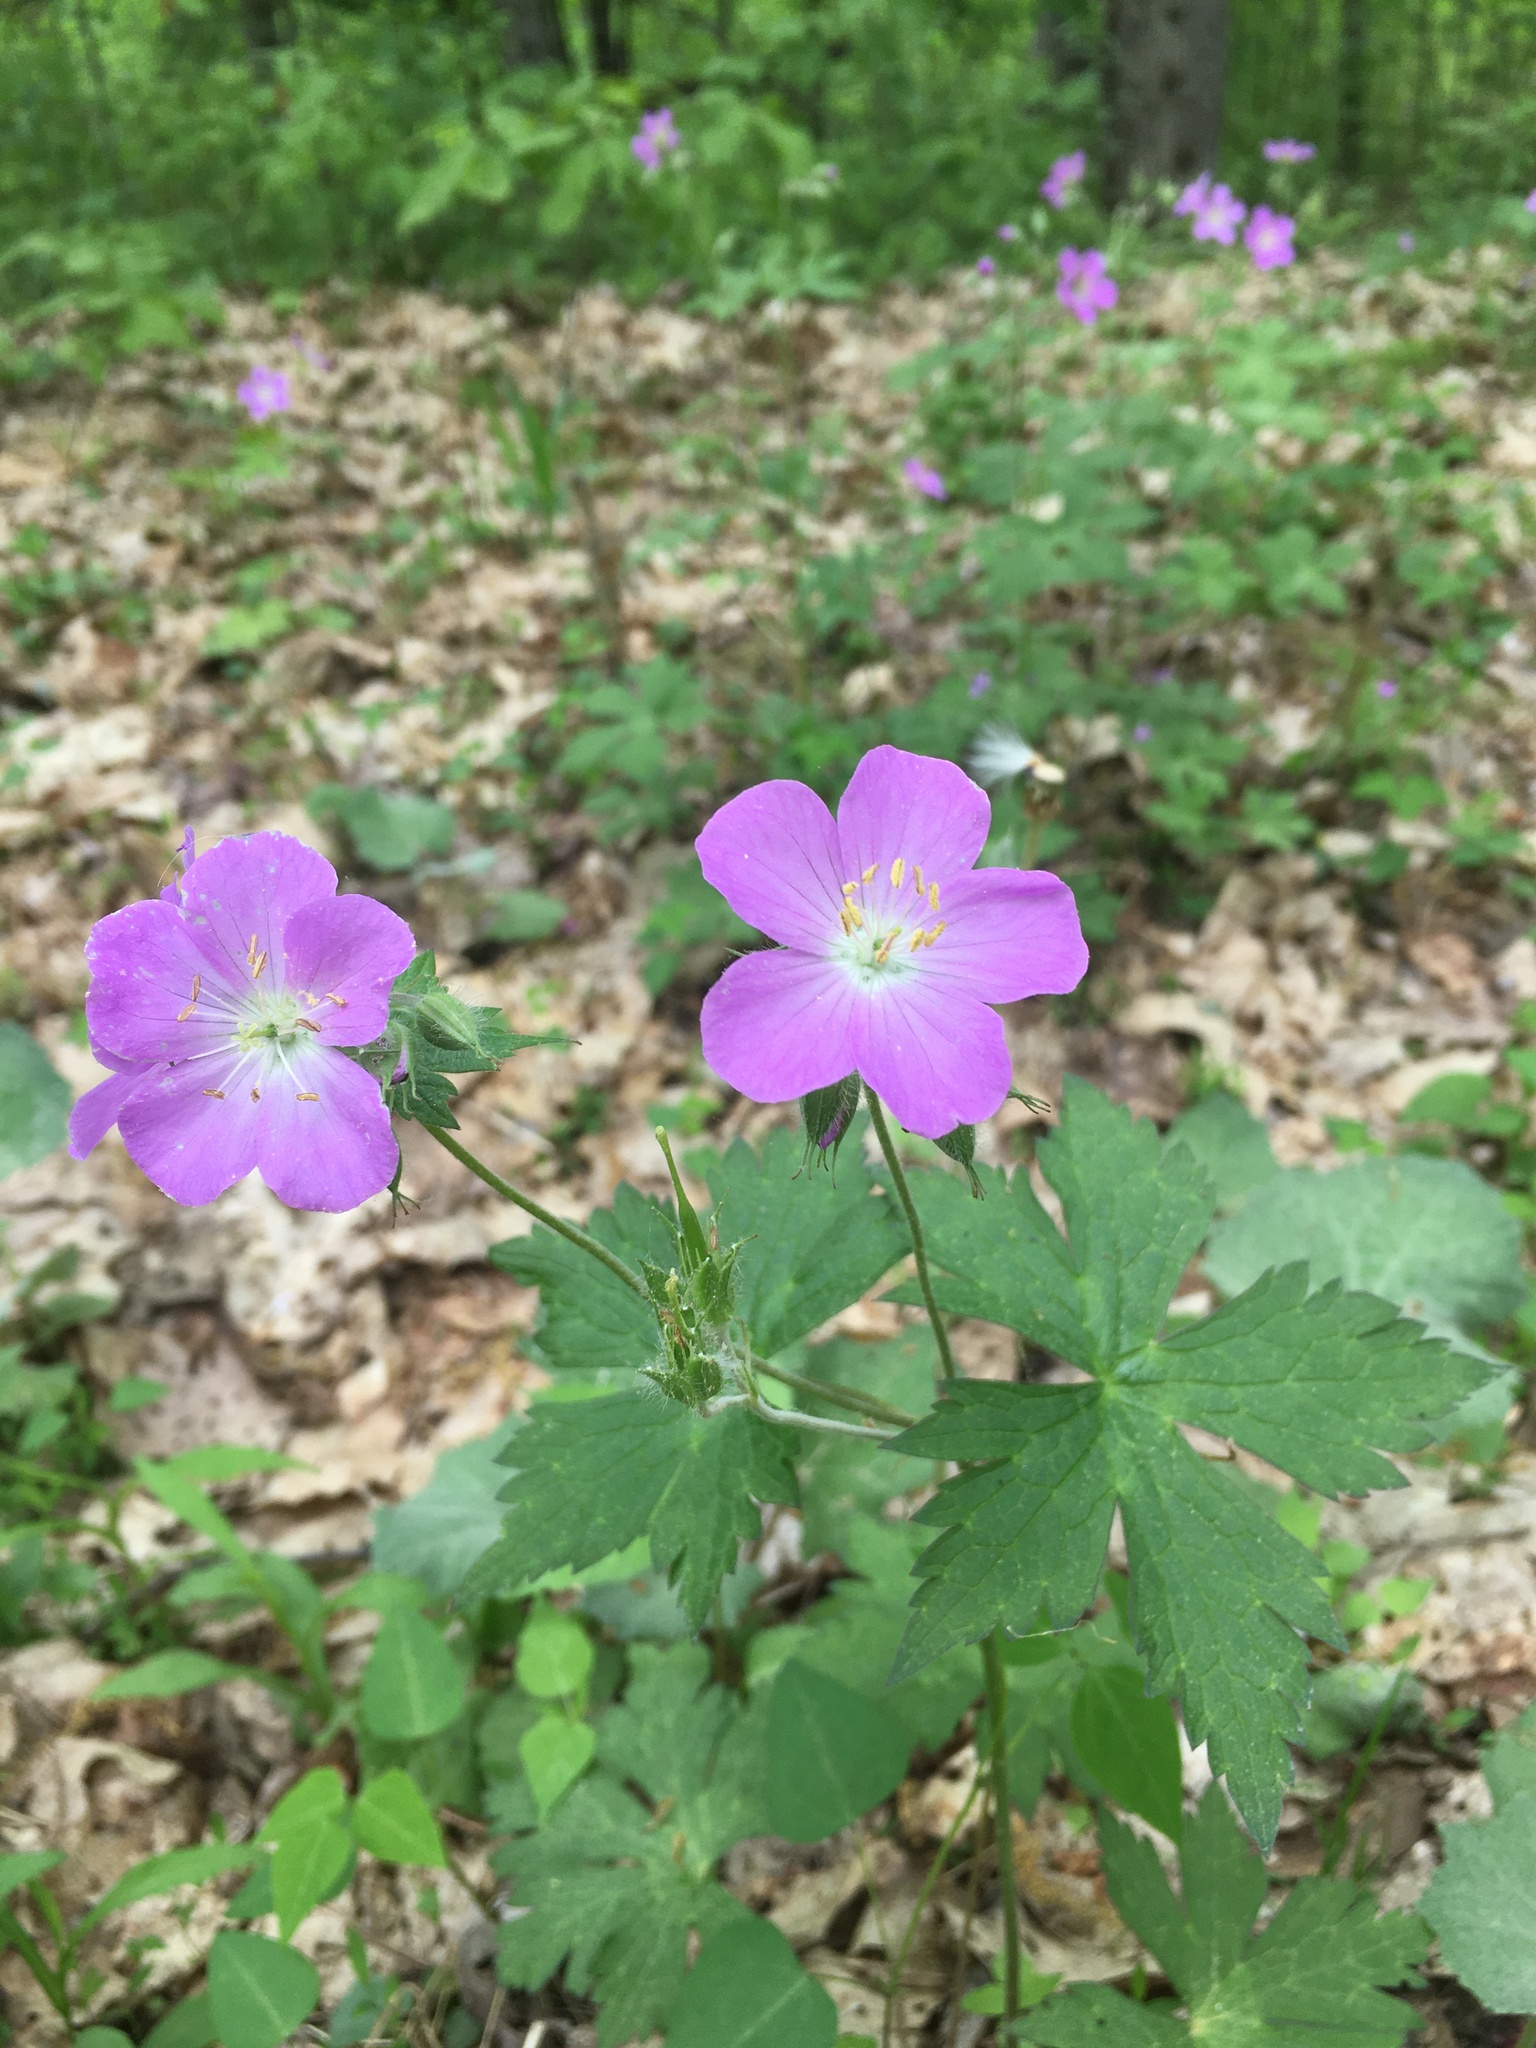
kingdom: Plantae
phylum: Tracheophyta
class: Magnoliopsida
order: Geraniales
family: Geraniaceae
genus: Geranium
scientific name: Geranium maculatum
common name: Spotted geranium
